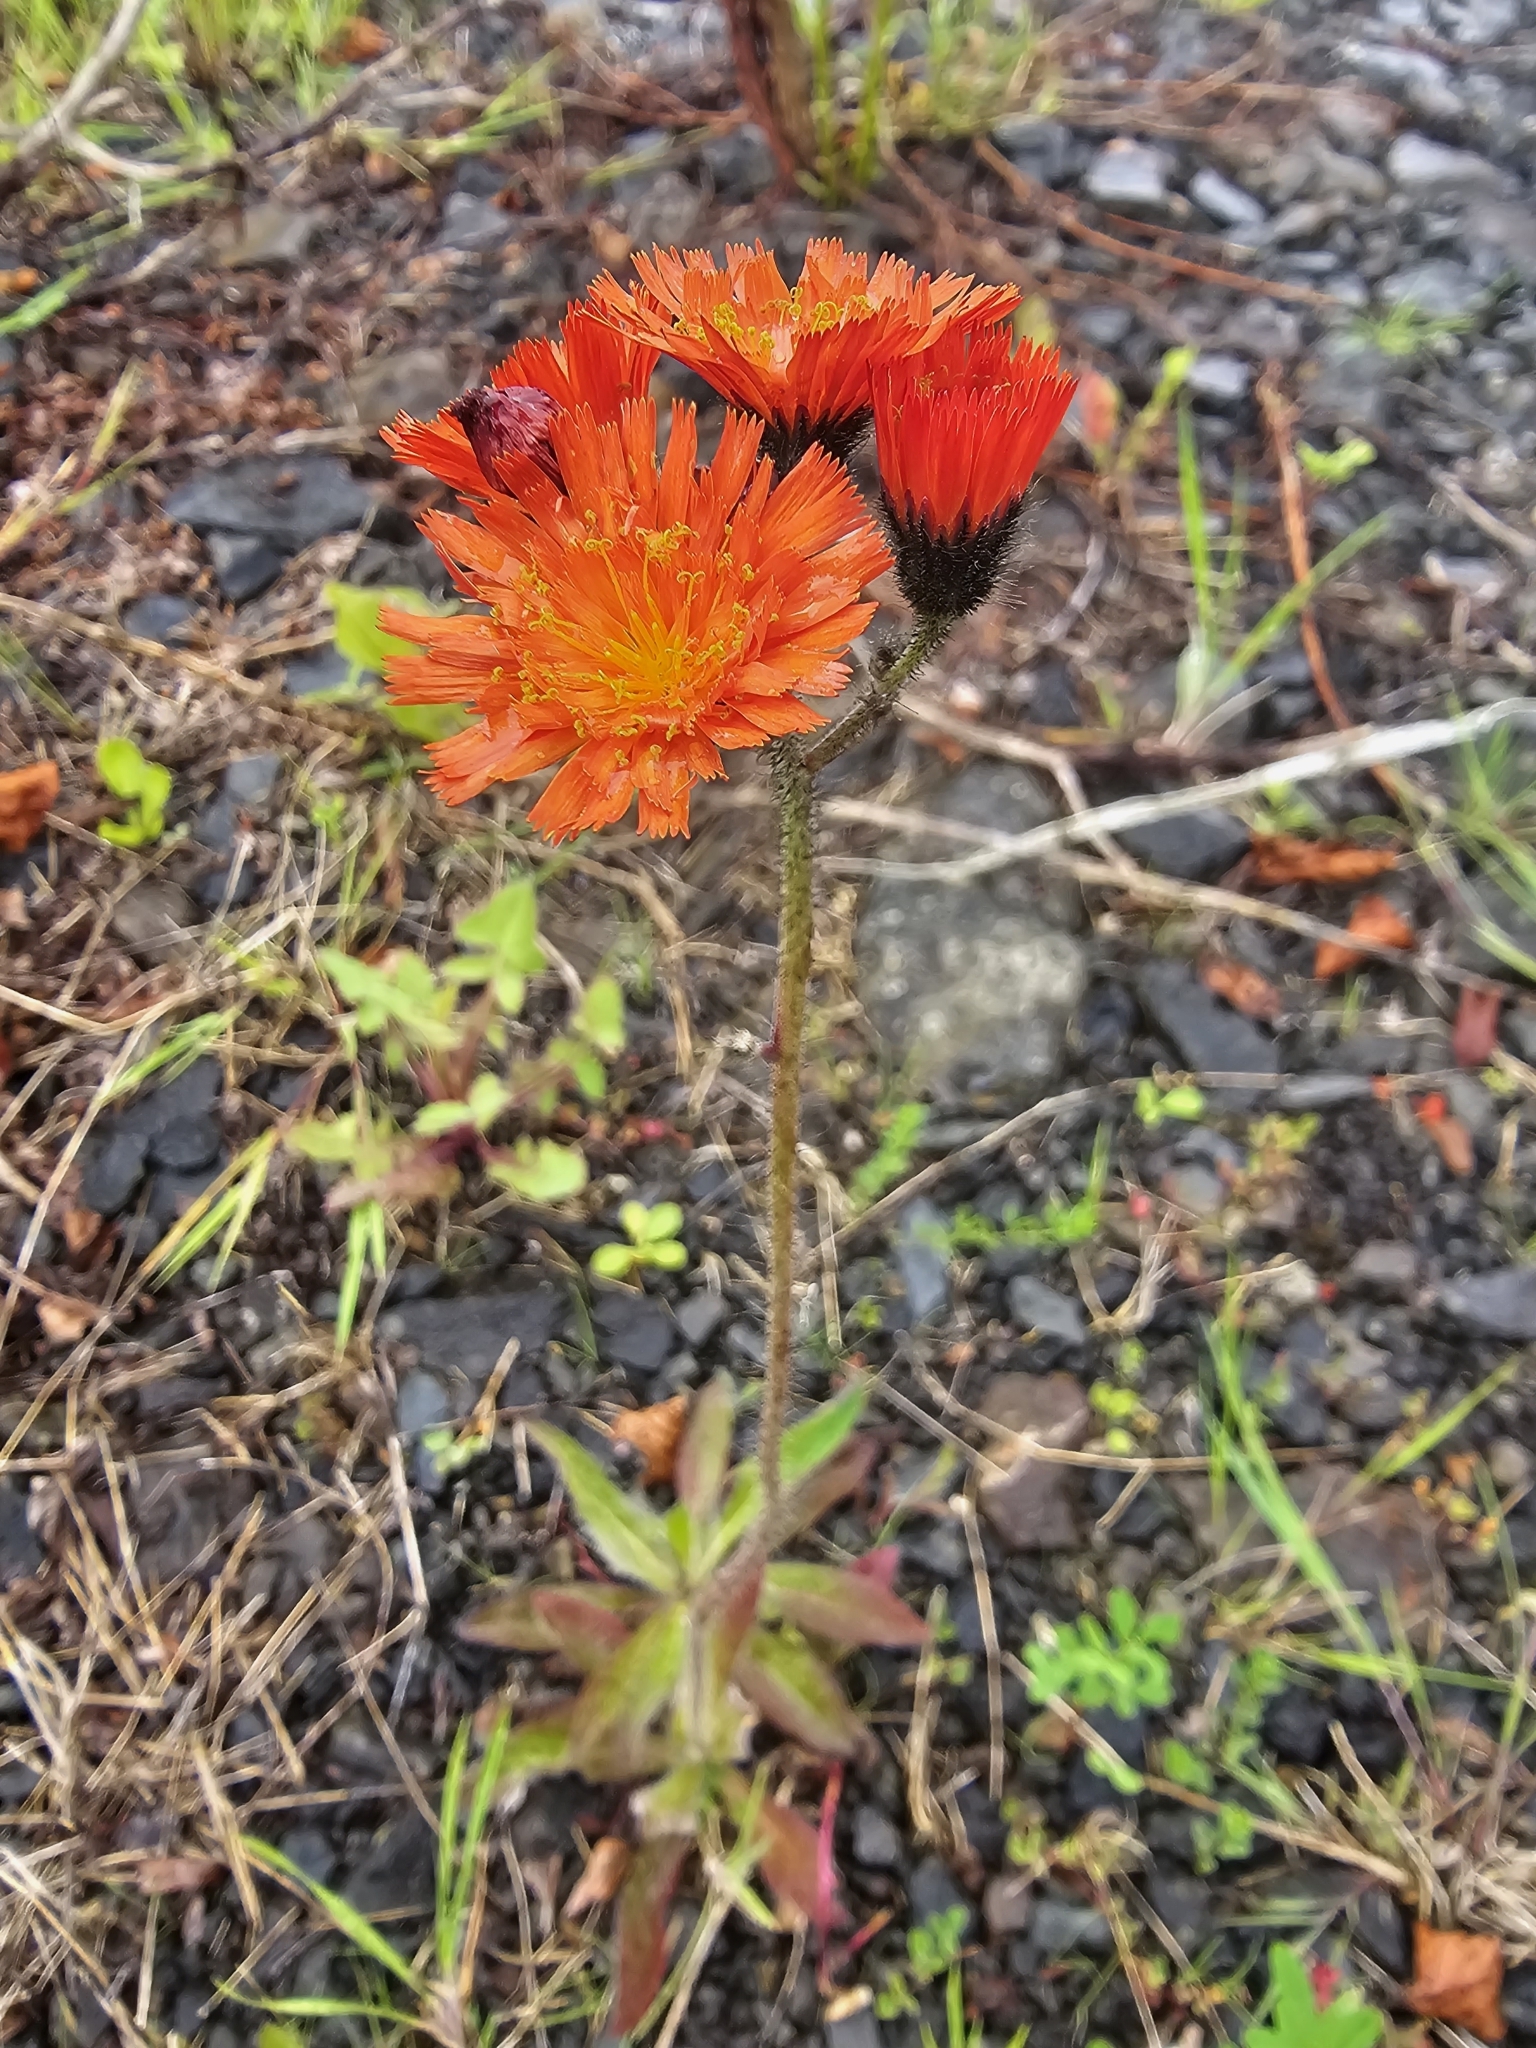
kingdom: Plantae
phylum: Tracheophyta
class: Magnoliopsida
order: Asterales
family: Asteraceae
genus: Pilosella
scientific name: Pilosella aurantiaca
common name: Fox-and-cubs
